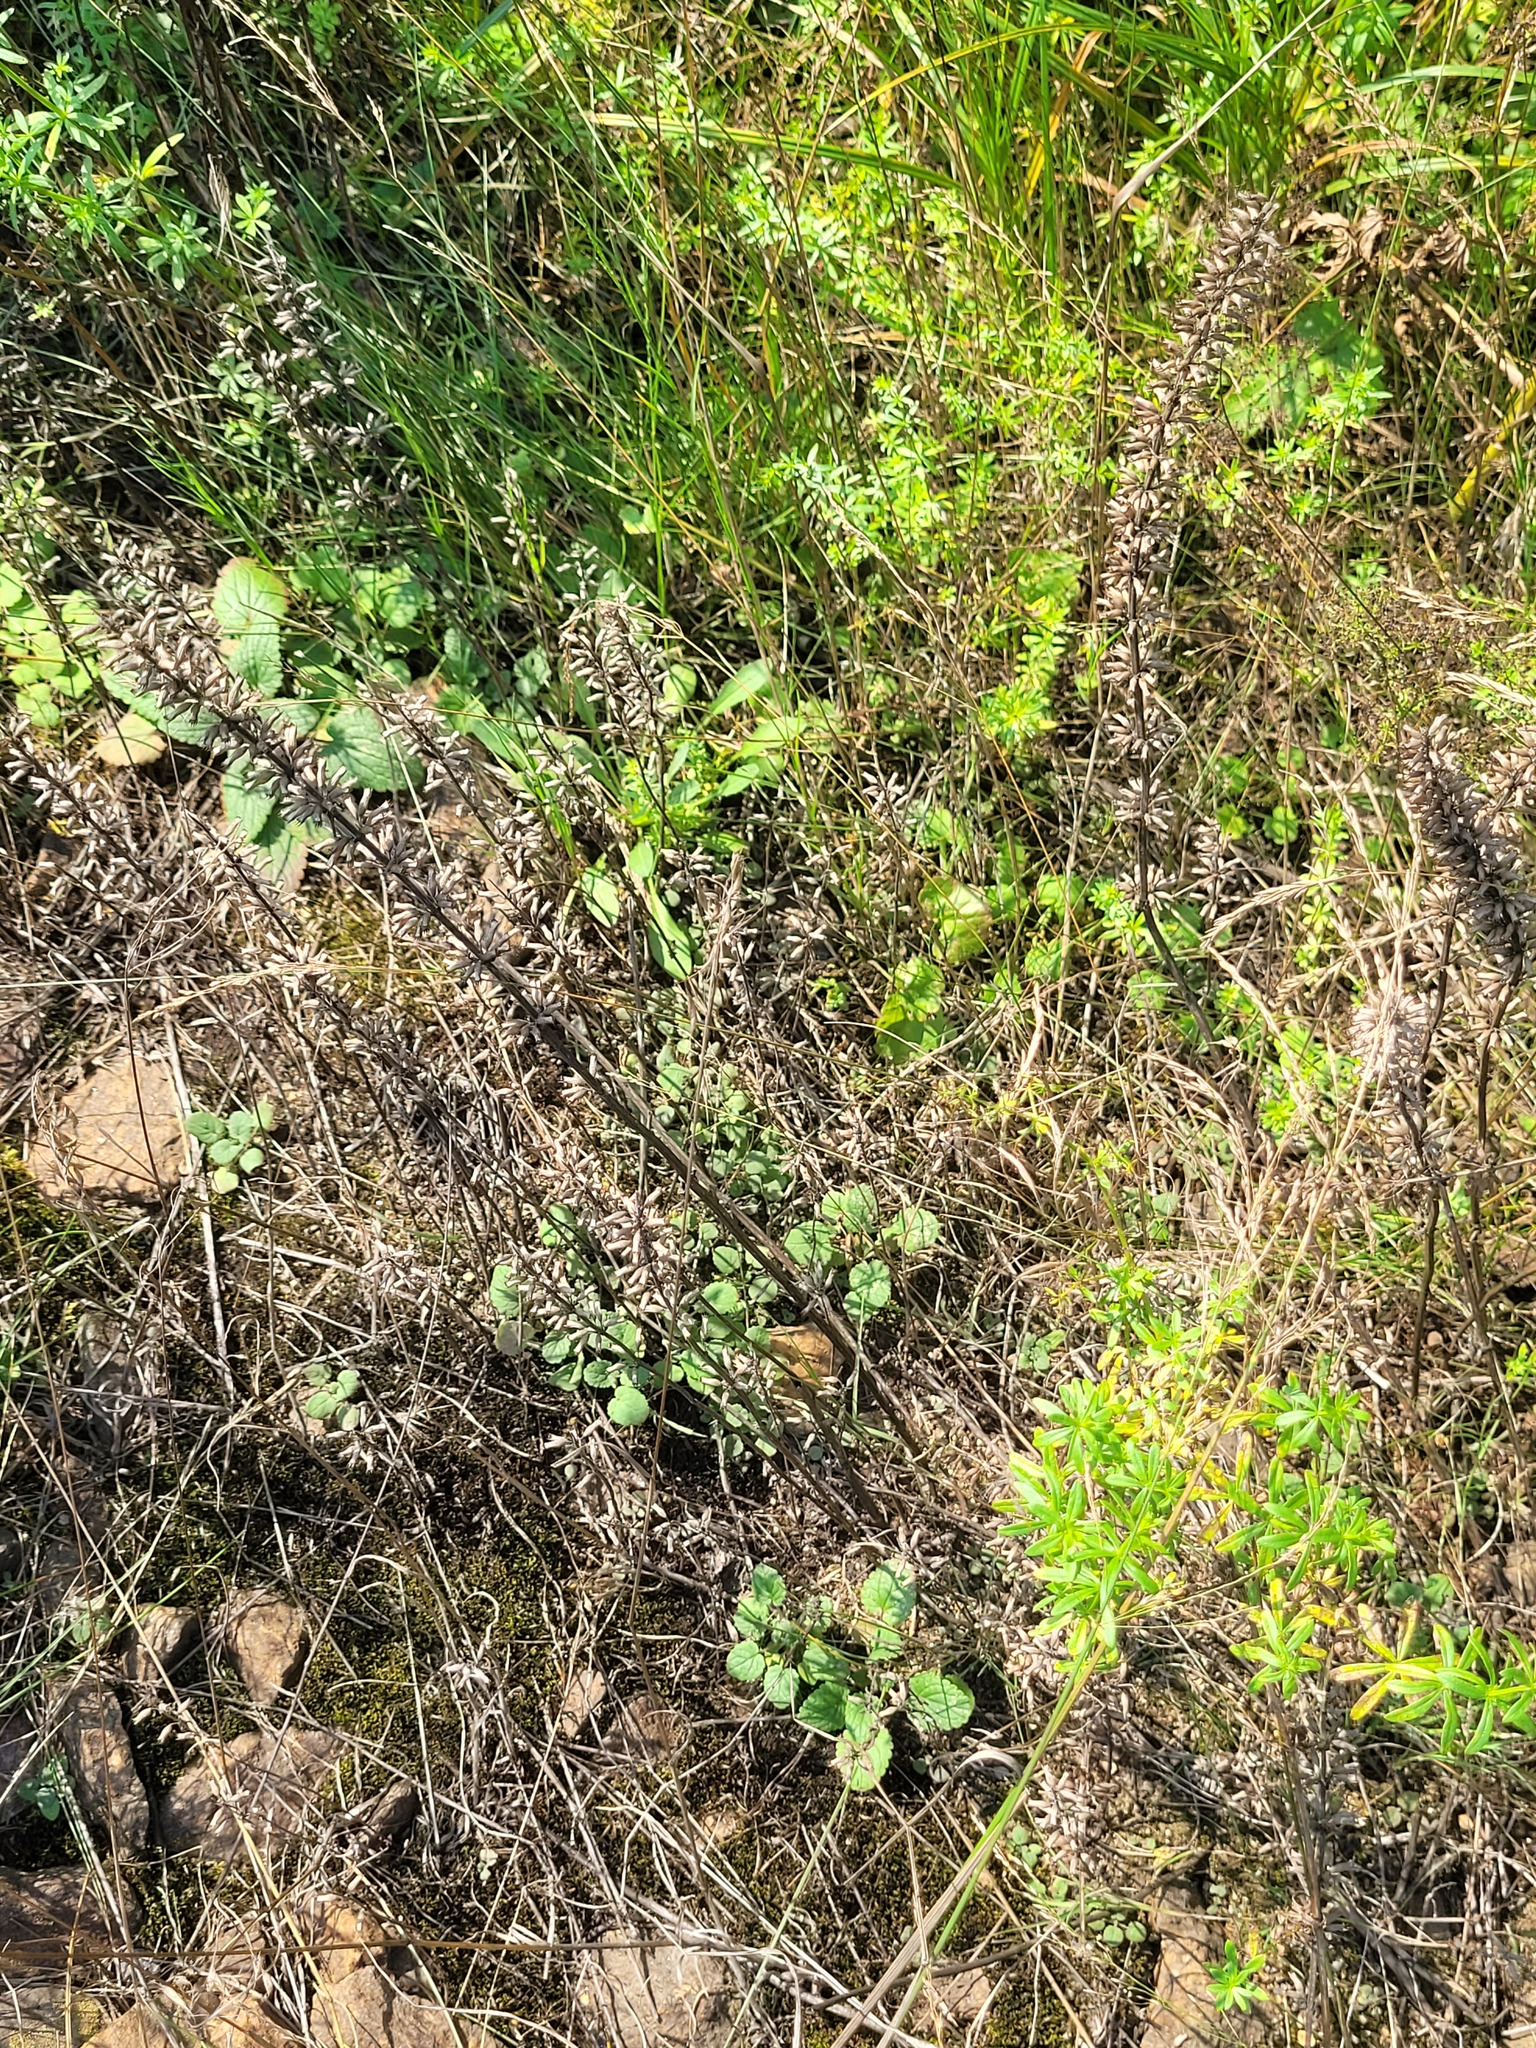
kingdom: Plantae
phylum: Tracheophyta
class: Magnoliopsida
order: Lamiales
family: Lamiaceae
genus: Dracocephalum
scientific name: Dracocephalum thymiflorum
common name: Thymeleaf dragonhead
